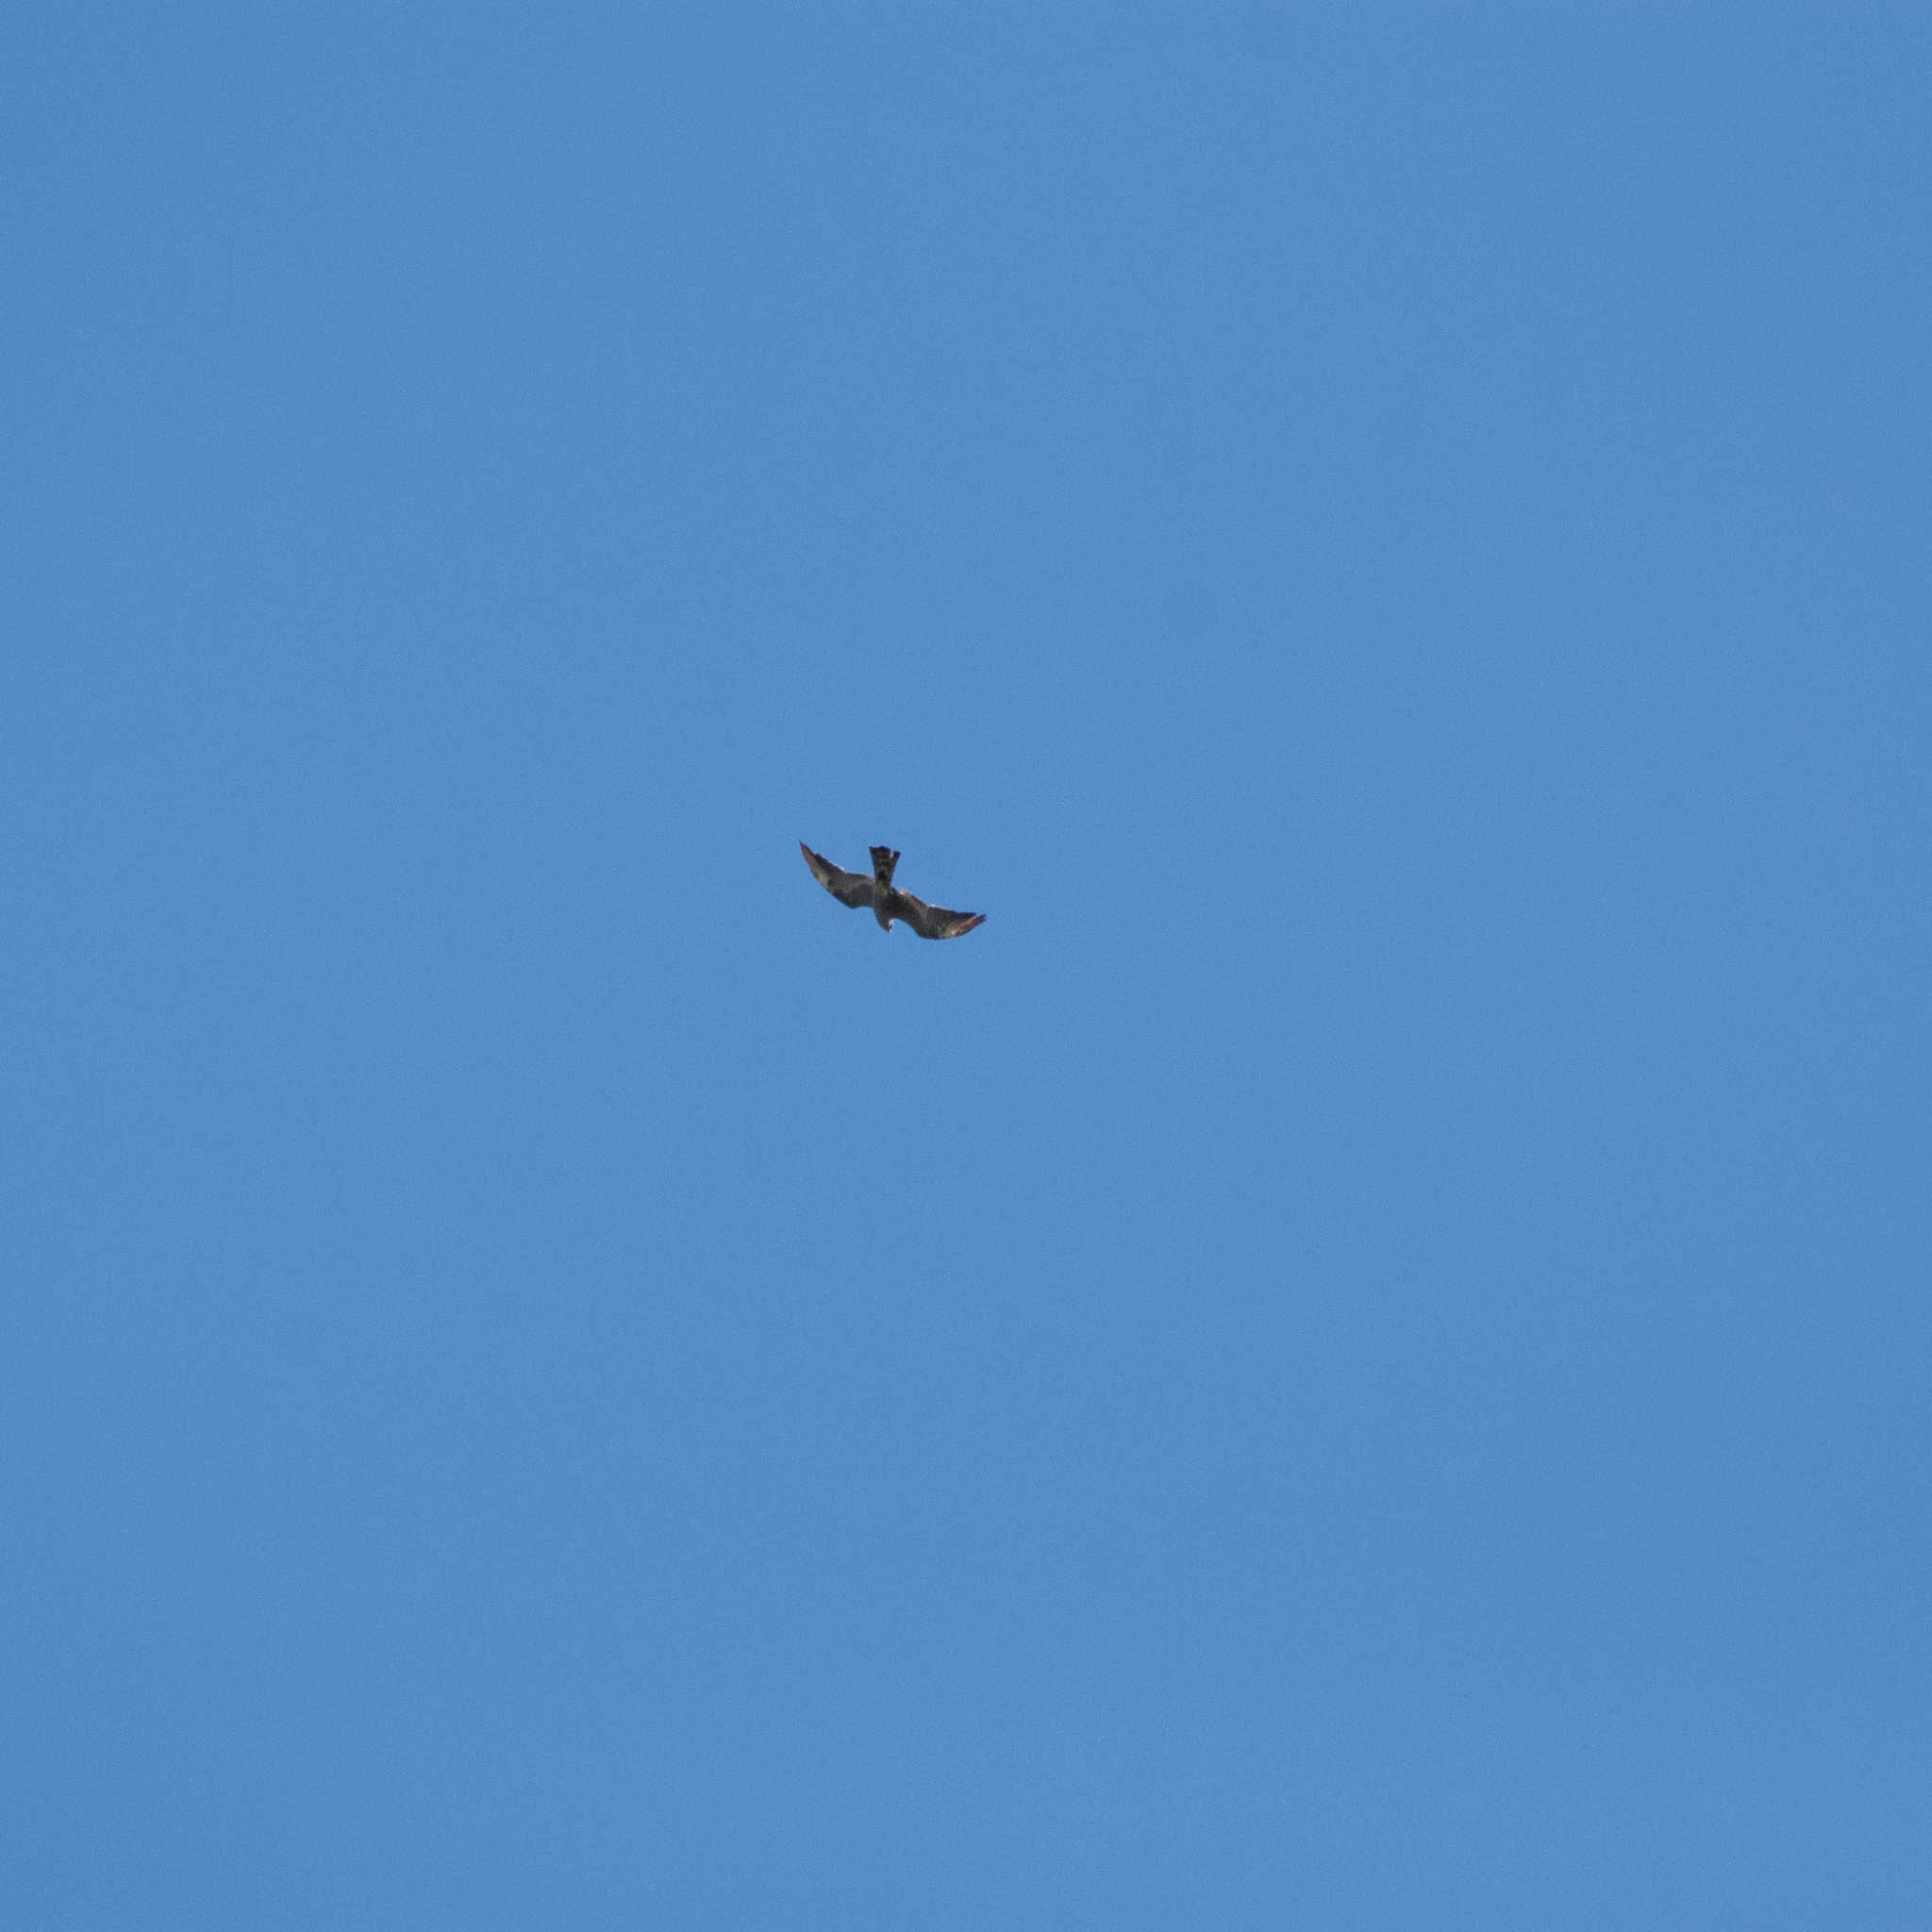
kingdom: Animalia
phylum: Chordata
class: Aves
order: Accipitriformes
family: Accipitridae
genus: Ictinia
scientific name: Ictinia mississippiensis
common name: Mississippi kite
